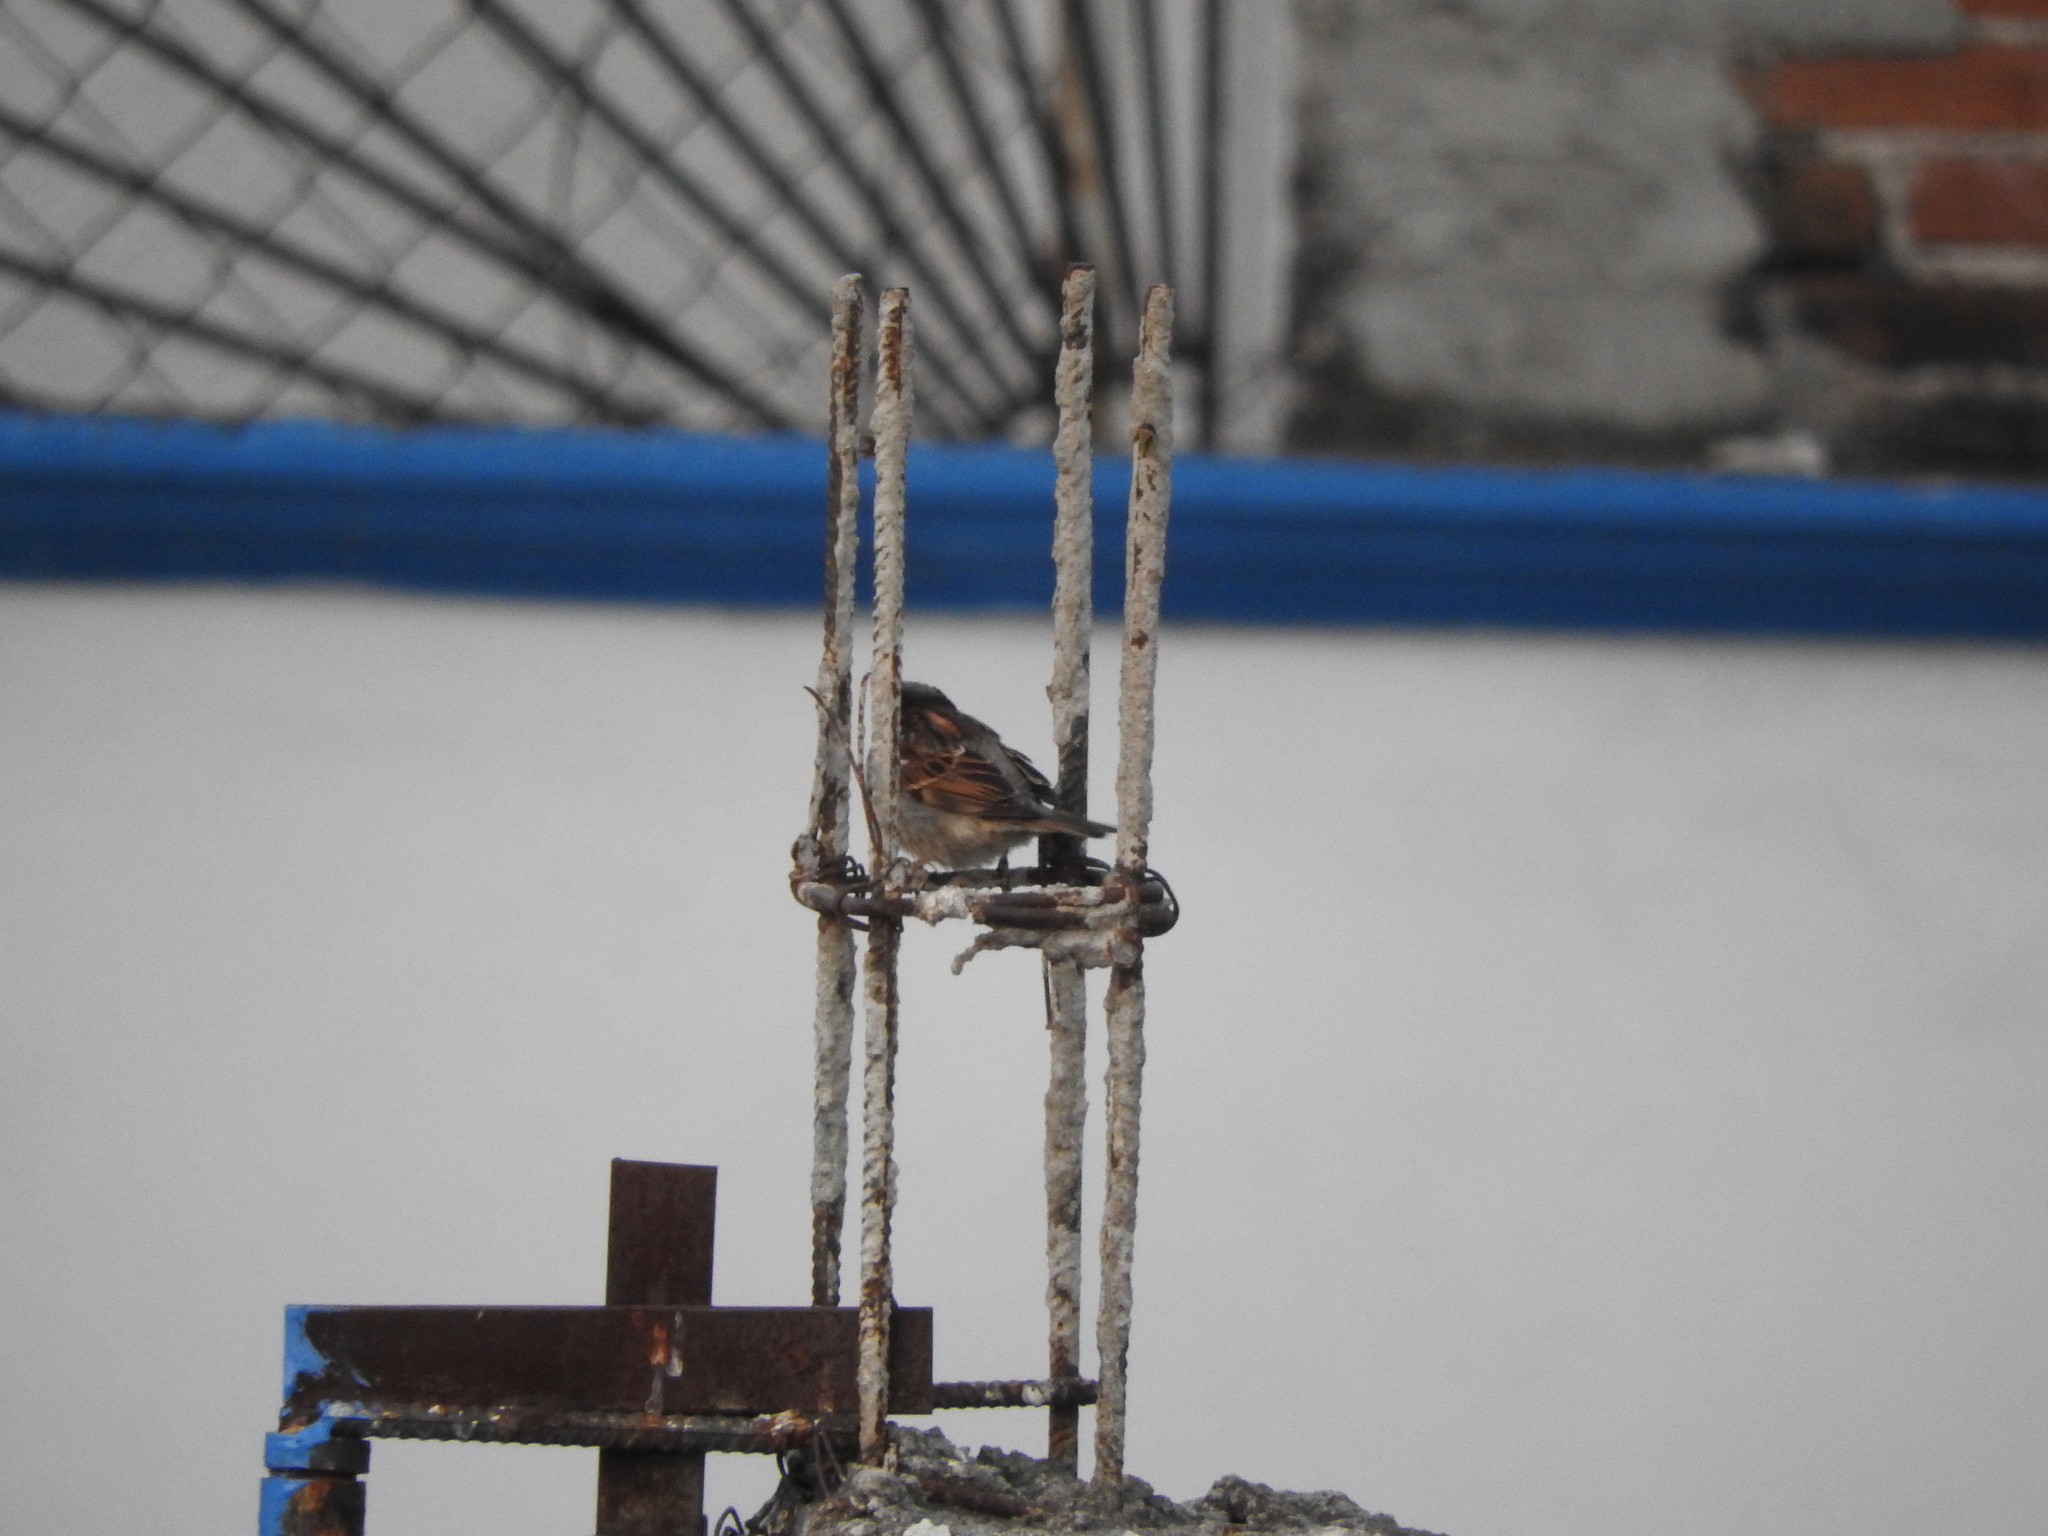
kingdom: Animalia
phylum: Chordata
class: Aves
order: Passeriformes
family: Passeridae
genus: Passer
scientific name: Passer domesticus
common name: House sparrow
